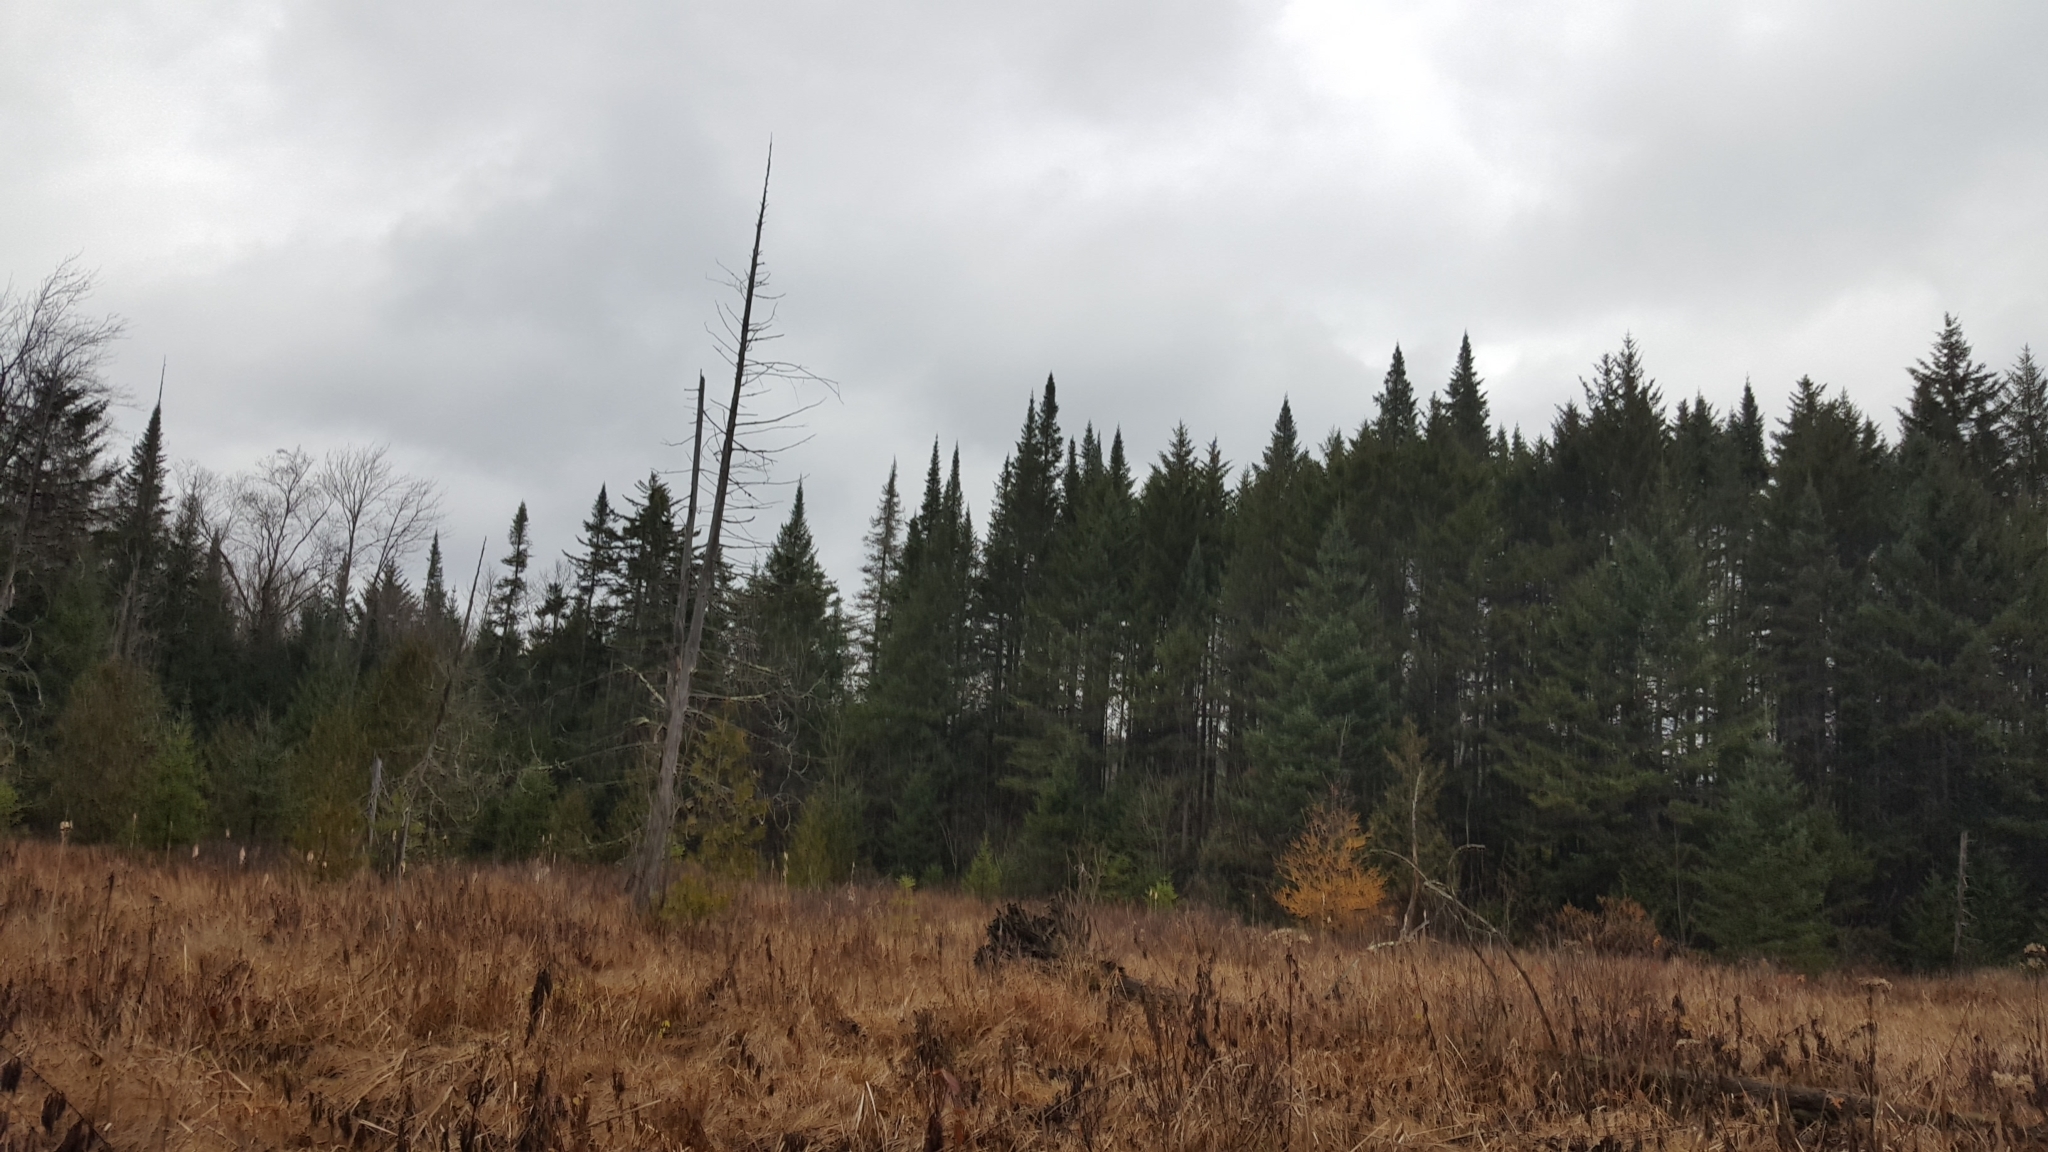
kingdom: Plantae
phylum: Tracheophyta
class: Pinopsida
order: Pinales
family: Pinaceae
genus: Abies
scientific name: Abies balsamea
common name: Balsam fir
